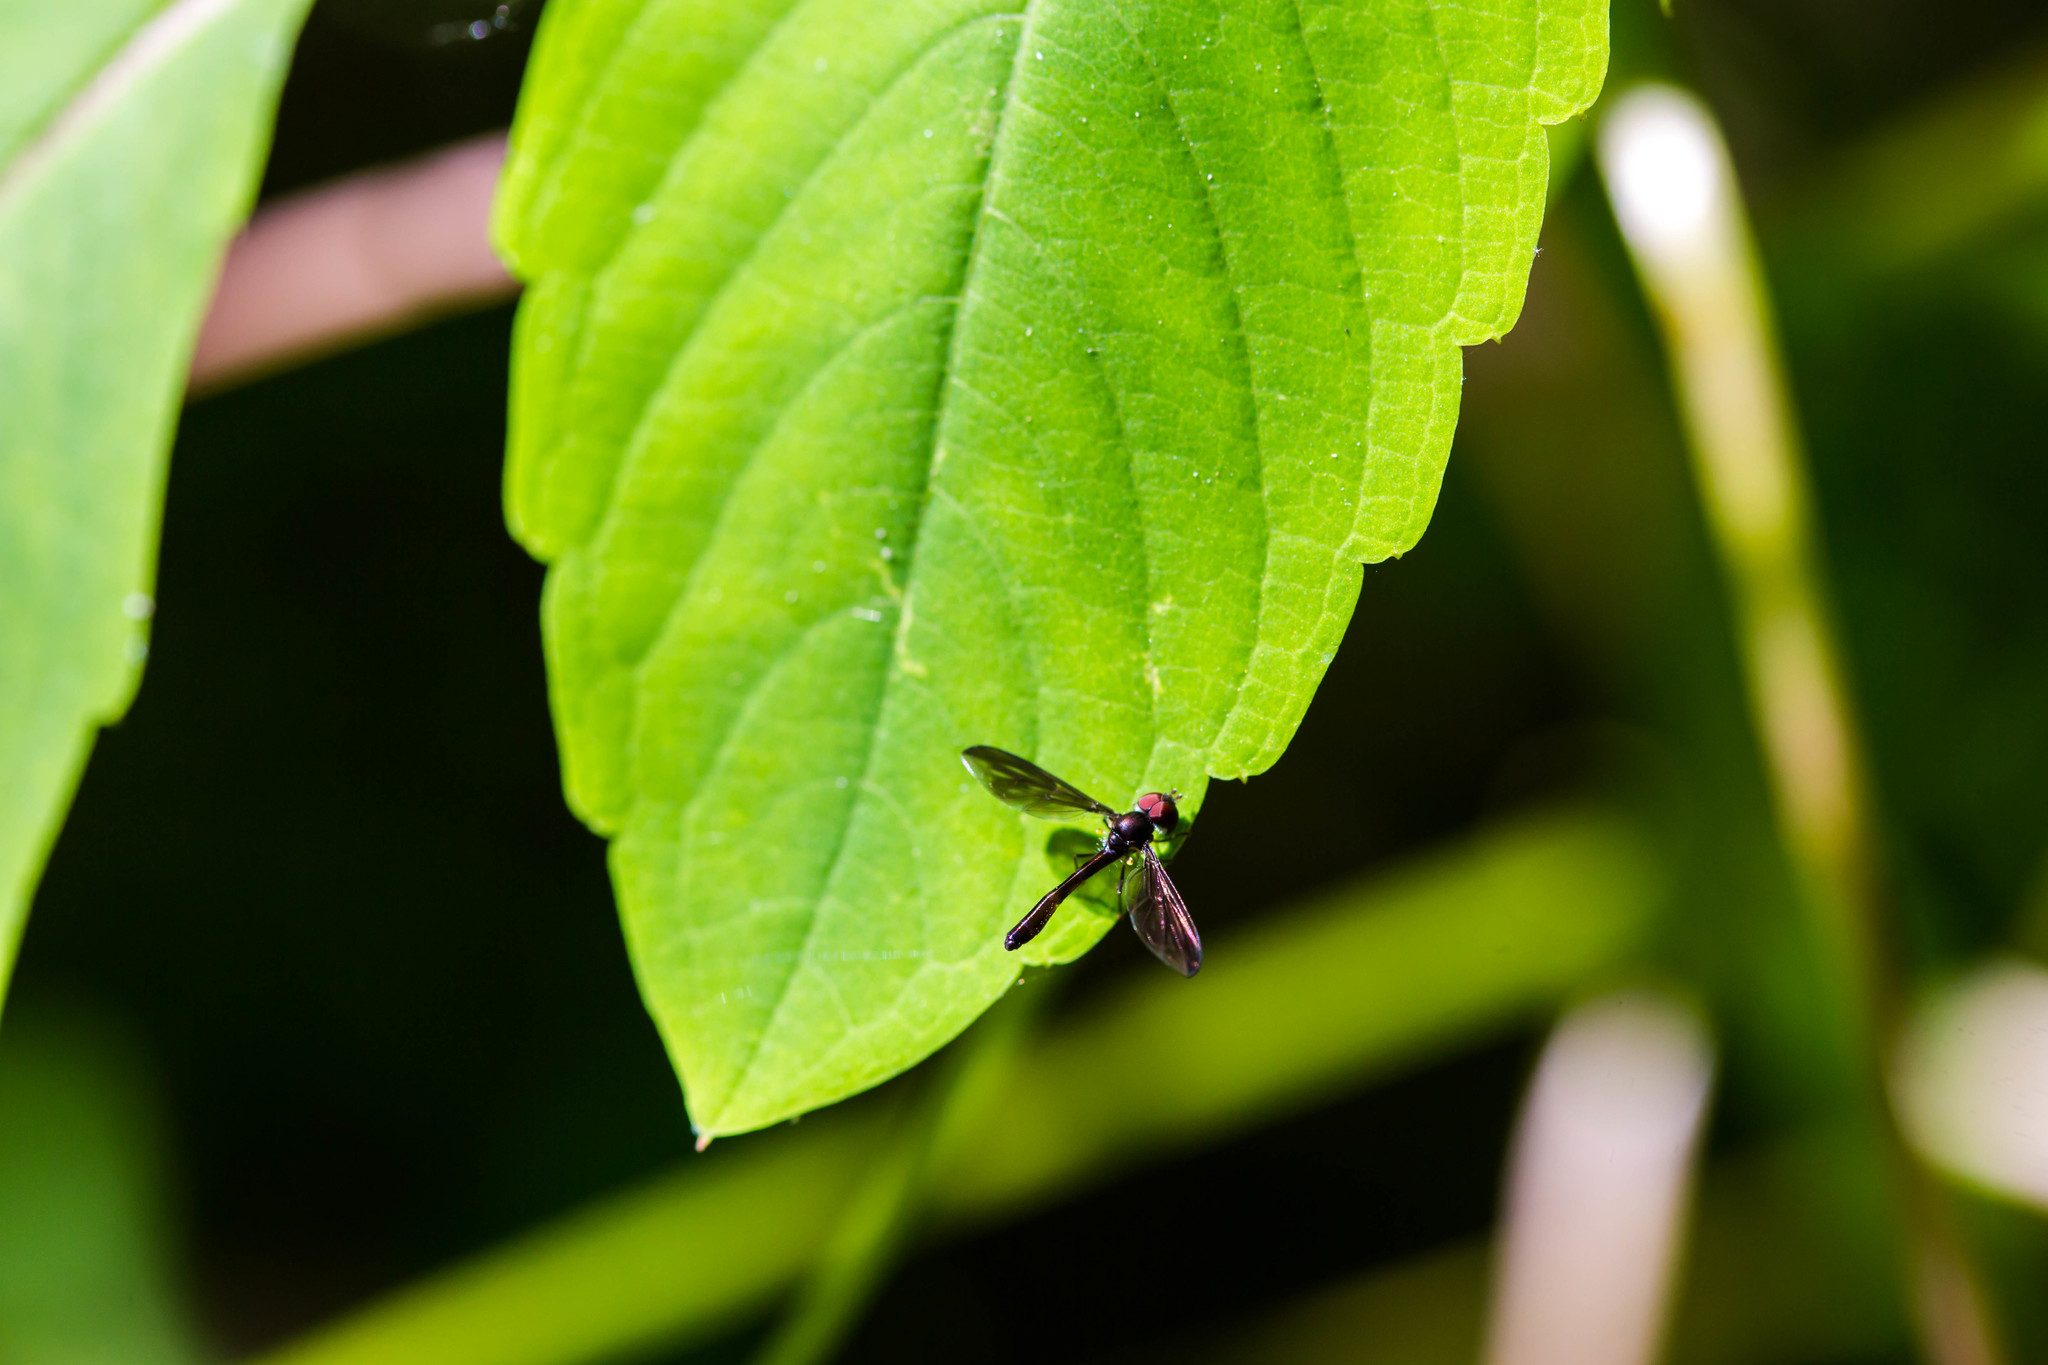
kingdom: Animalia
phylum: Arthropoda
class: Insecta
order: Diptera
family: Syrphidae
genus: Ocyptamus
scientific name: Ocyptamus fuscipennis
